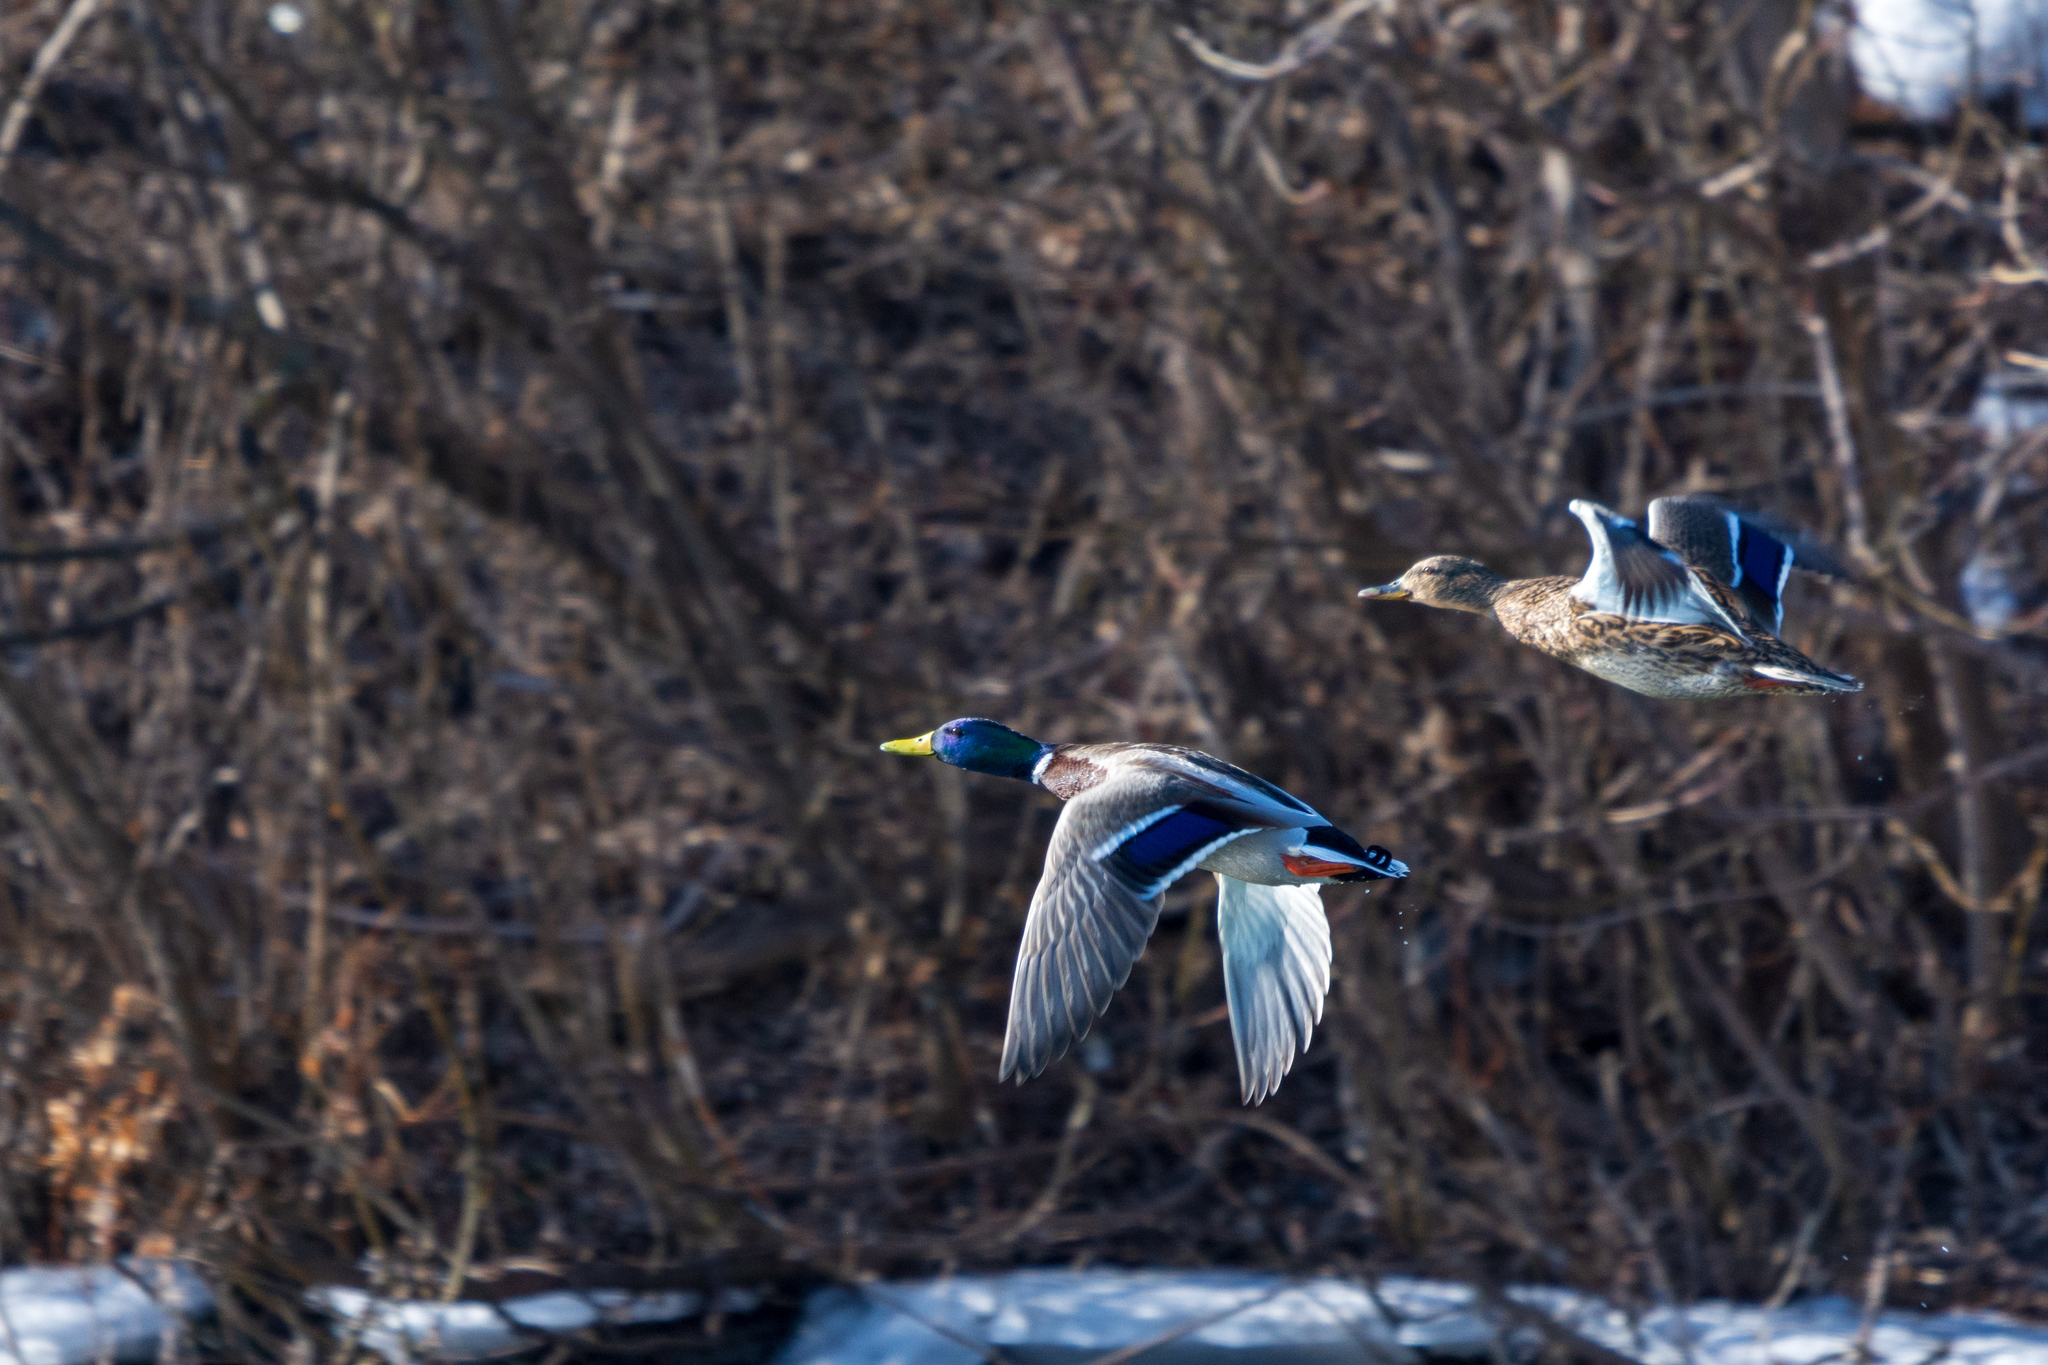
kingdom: Animalia
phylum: Chordata
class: Aves
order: Anseriformes
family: Anatidae
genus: Anas
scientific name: Anas platyrhynchos
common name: Mallard
